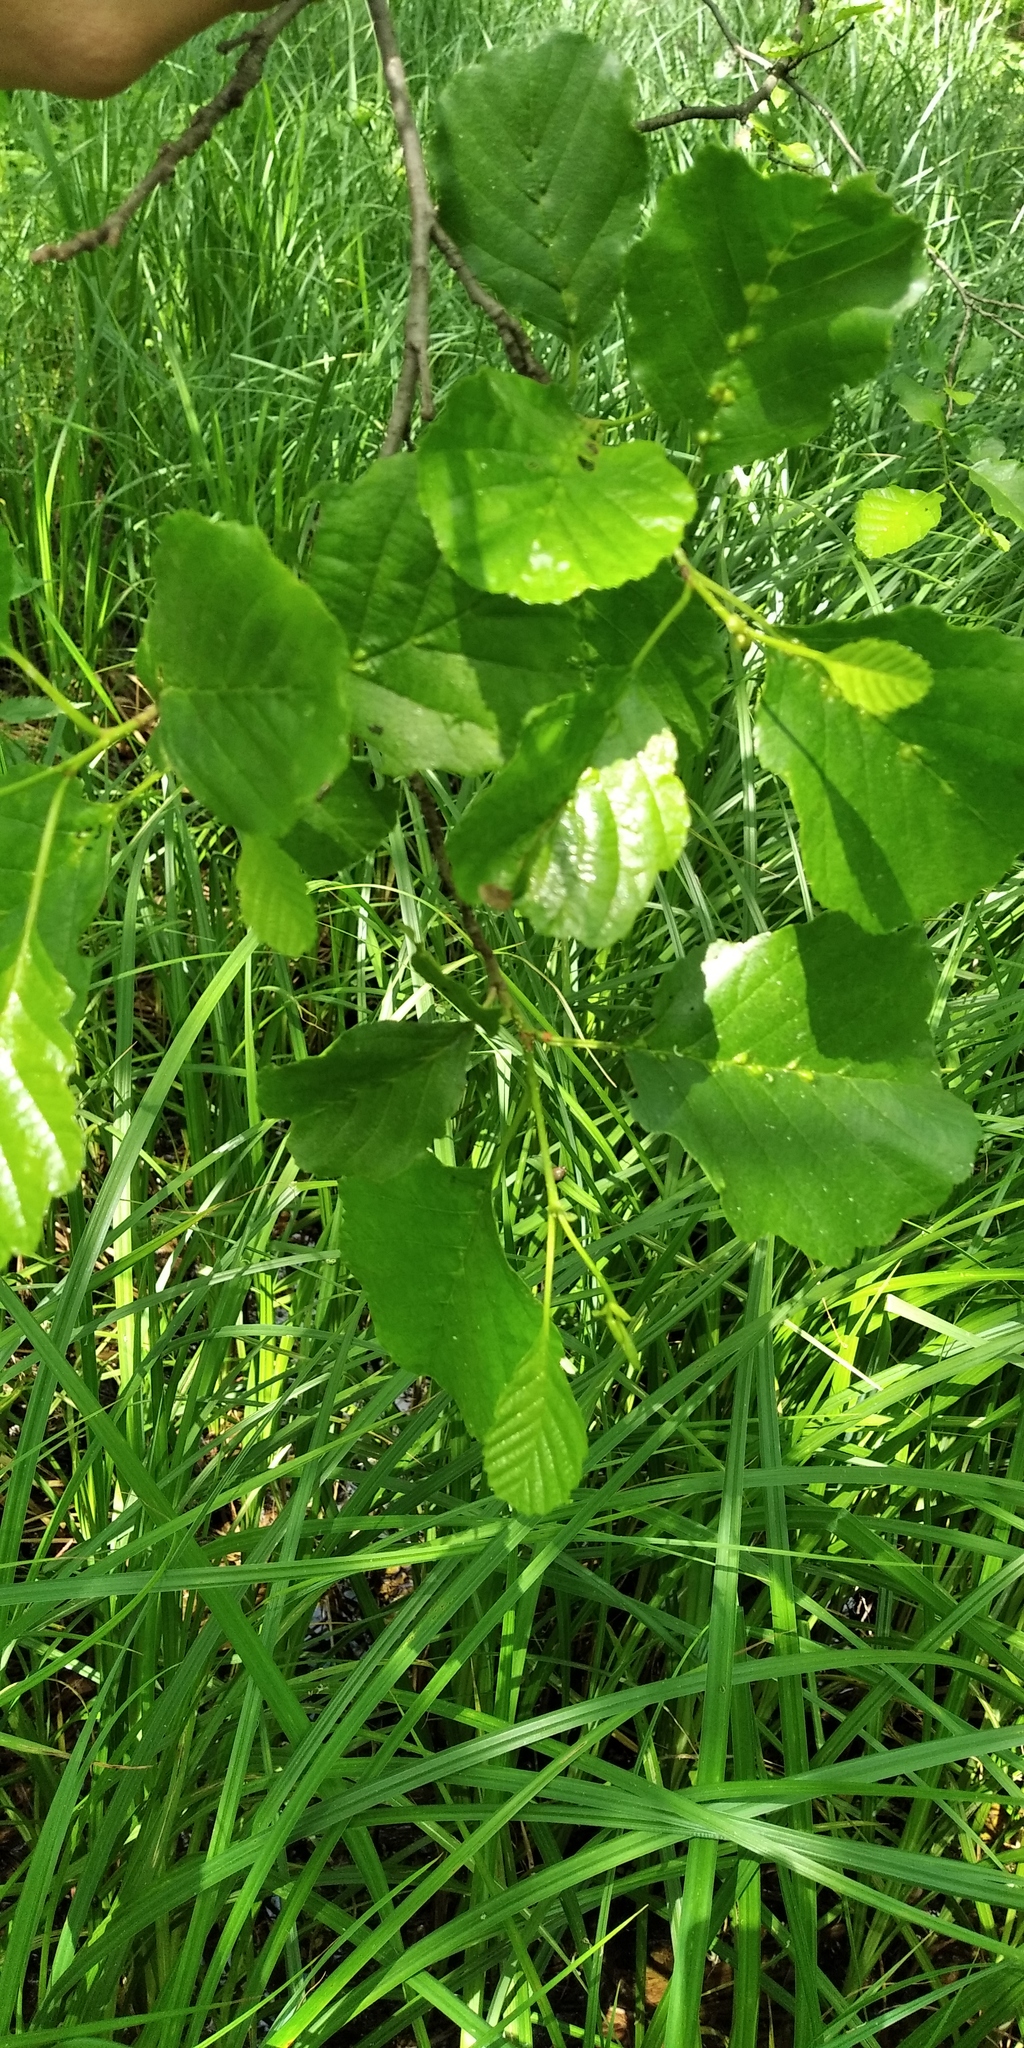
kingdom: Plantae
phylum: Tracheophyta
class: Magnoliopsida
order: Fagales
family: Betulaceae
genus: Alnus
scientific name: Alnus glutinosa
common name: Black alder
